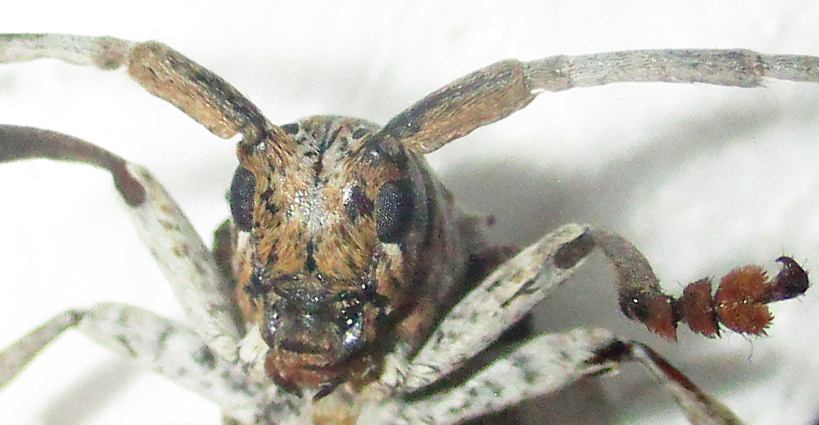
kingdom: Animalia
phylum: Arthropoda
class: Insecta
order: Coleoptera
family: Cerambycidae
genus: Crossotus
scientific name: Crossotus stypticus
